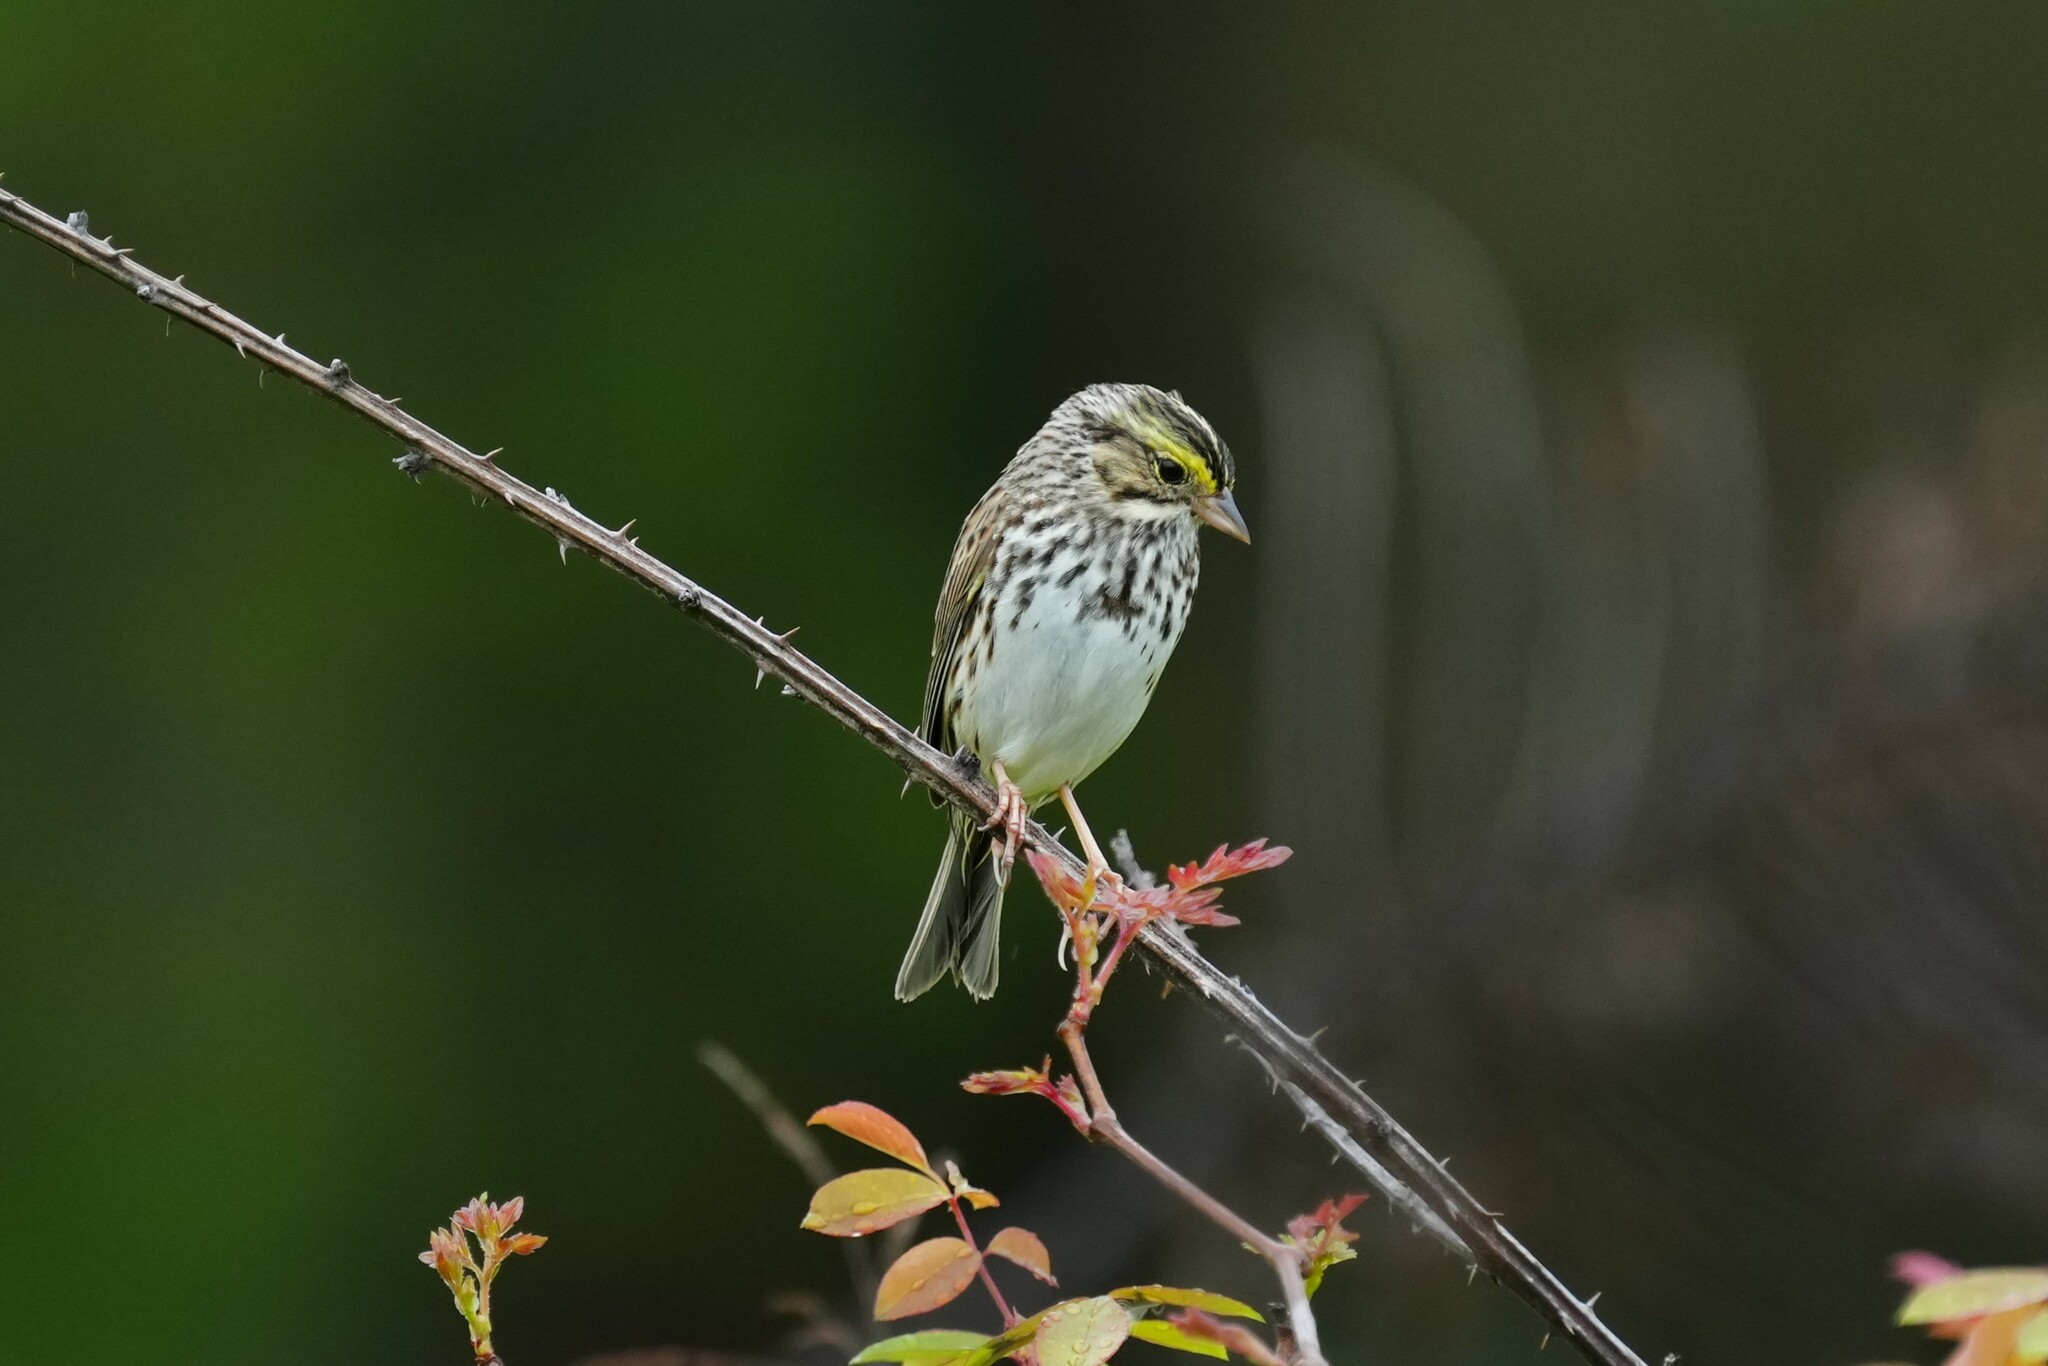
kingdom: Animalia
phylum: Chordata
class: Aves
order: Passeriformes
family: Passerellidae
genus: Passerculus
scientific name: Passerculus sandwichensis
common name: Savannah sparrow
